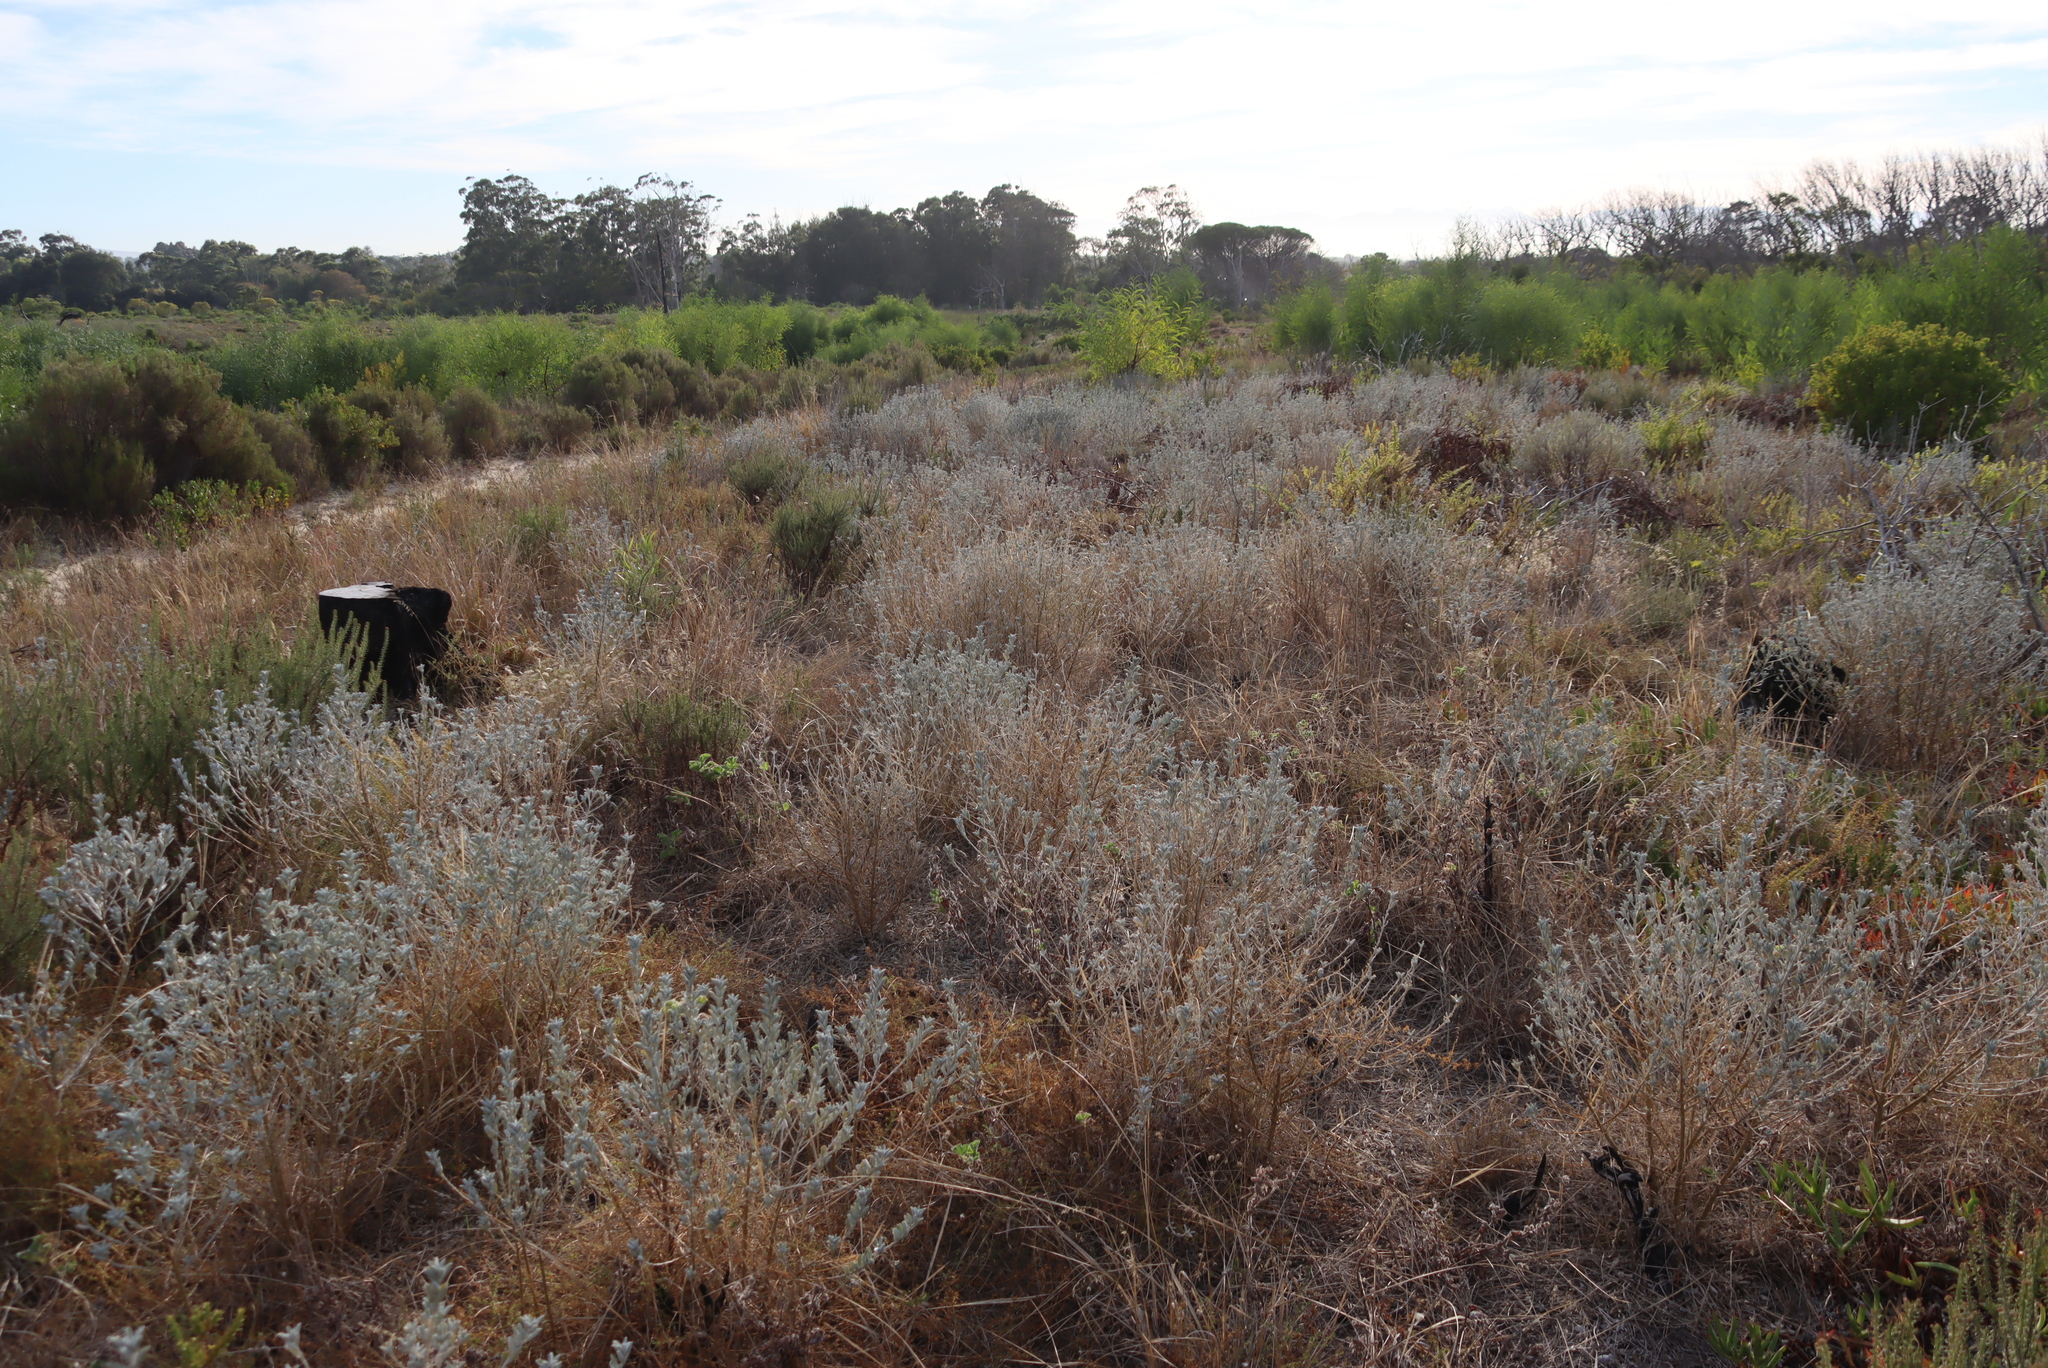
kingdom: Plantae
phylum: Tracheophyta
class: Magnoliopsida
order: Fabales
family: Fabaceae
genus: Podalyria
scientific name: Podalyria sericea
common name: Silver podalyria
